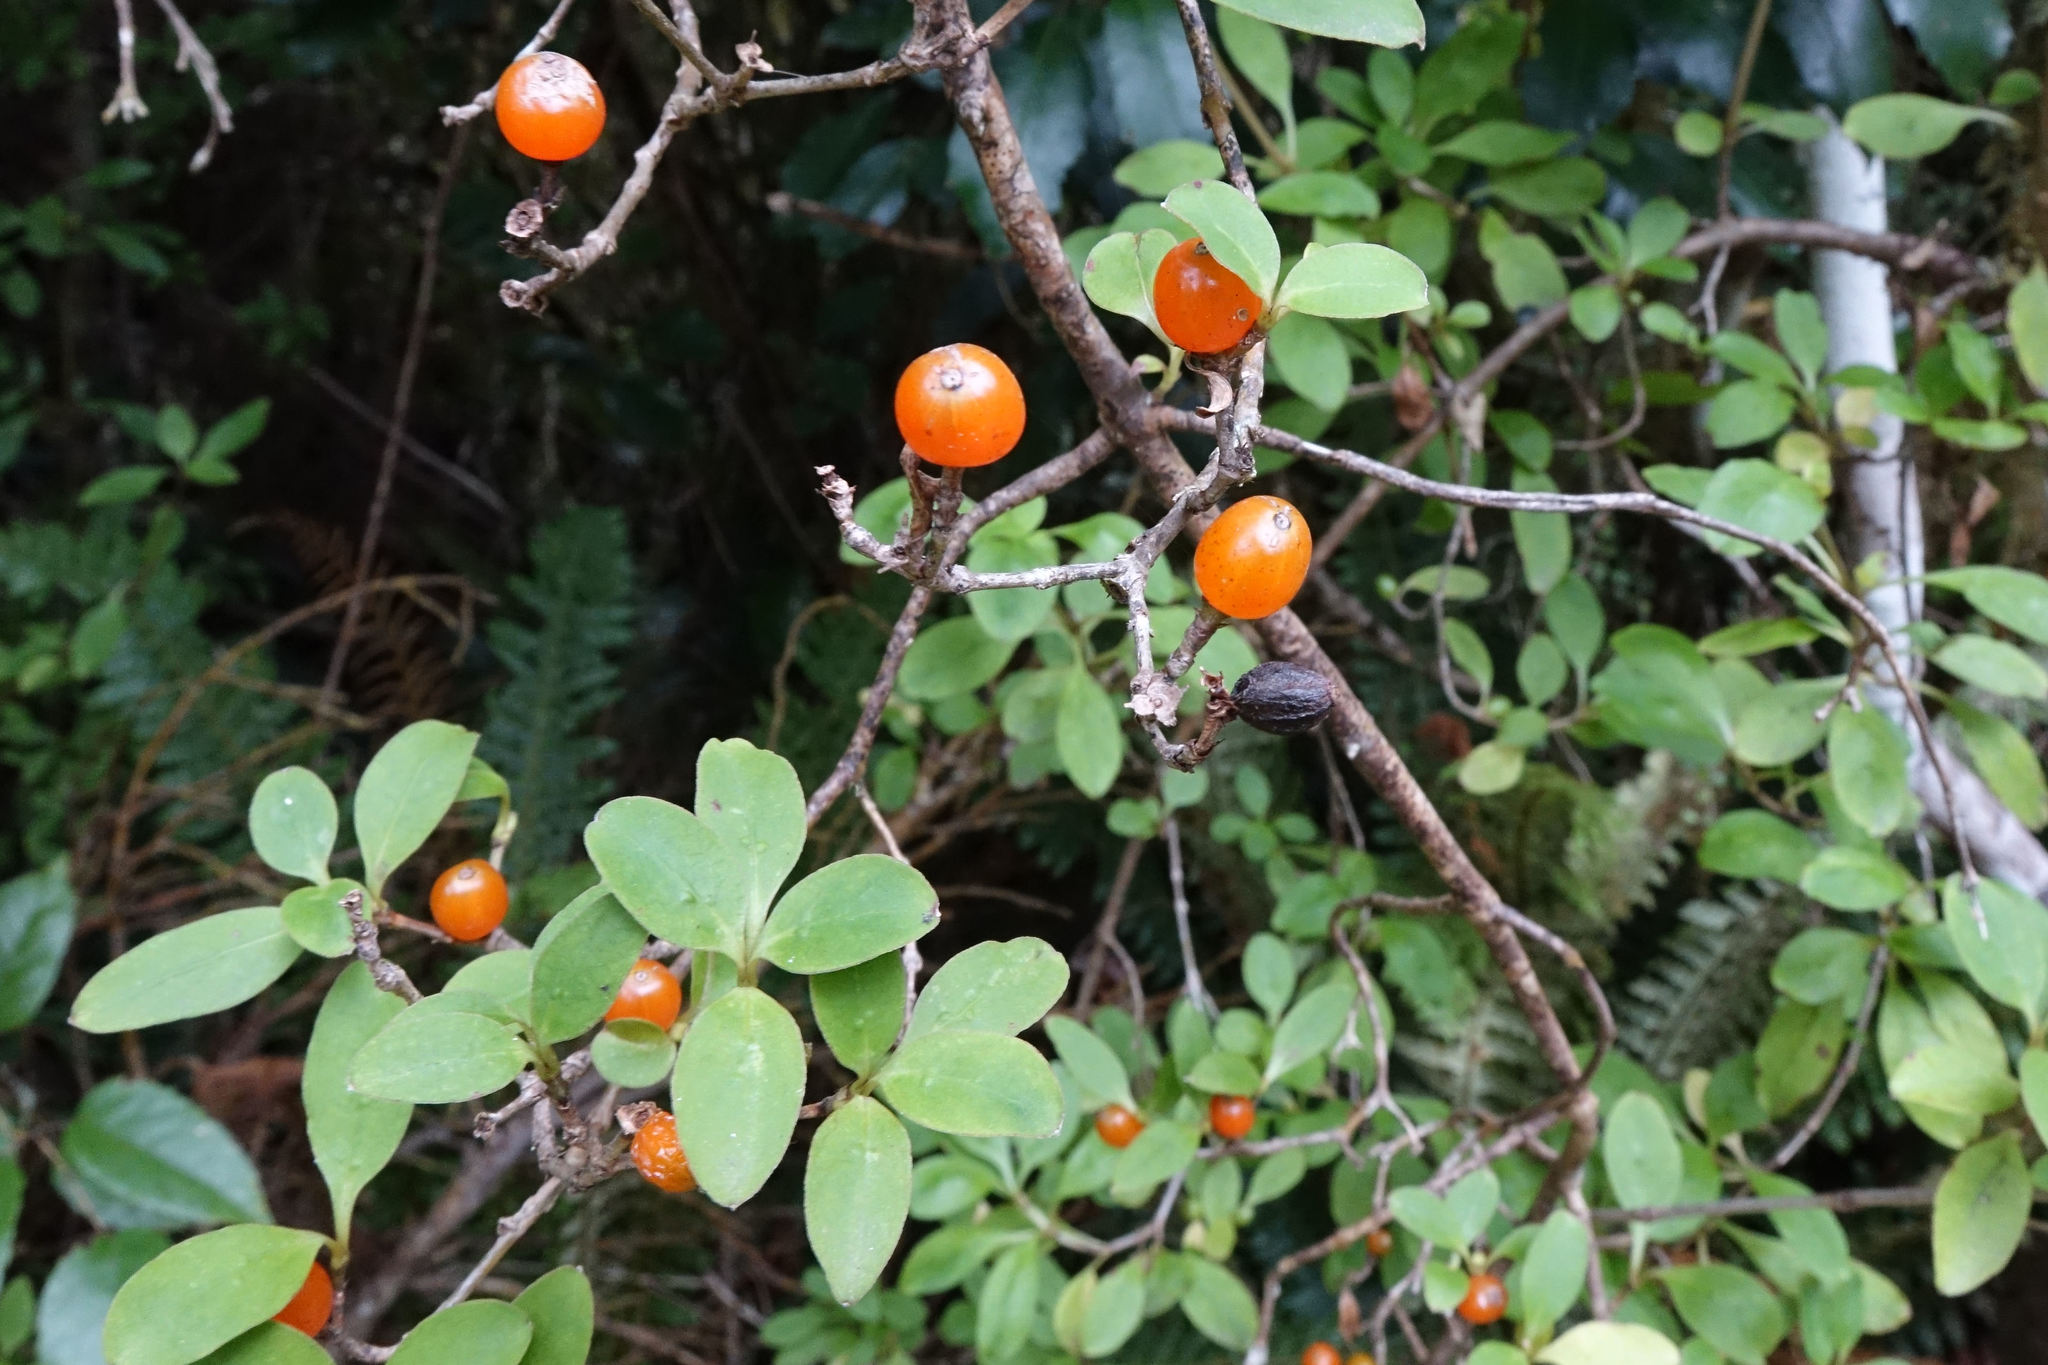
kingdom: Plantae
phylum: Tracheophyta
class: Magnoliopsida
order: Gentianales
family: Rubiaceae
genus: Coprosma
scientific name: Coprosma foetidissima
